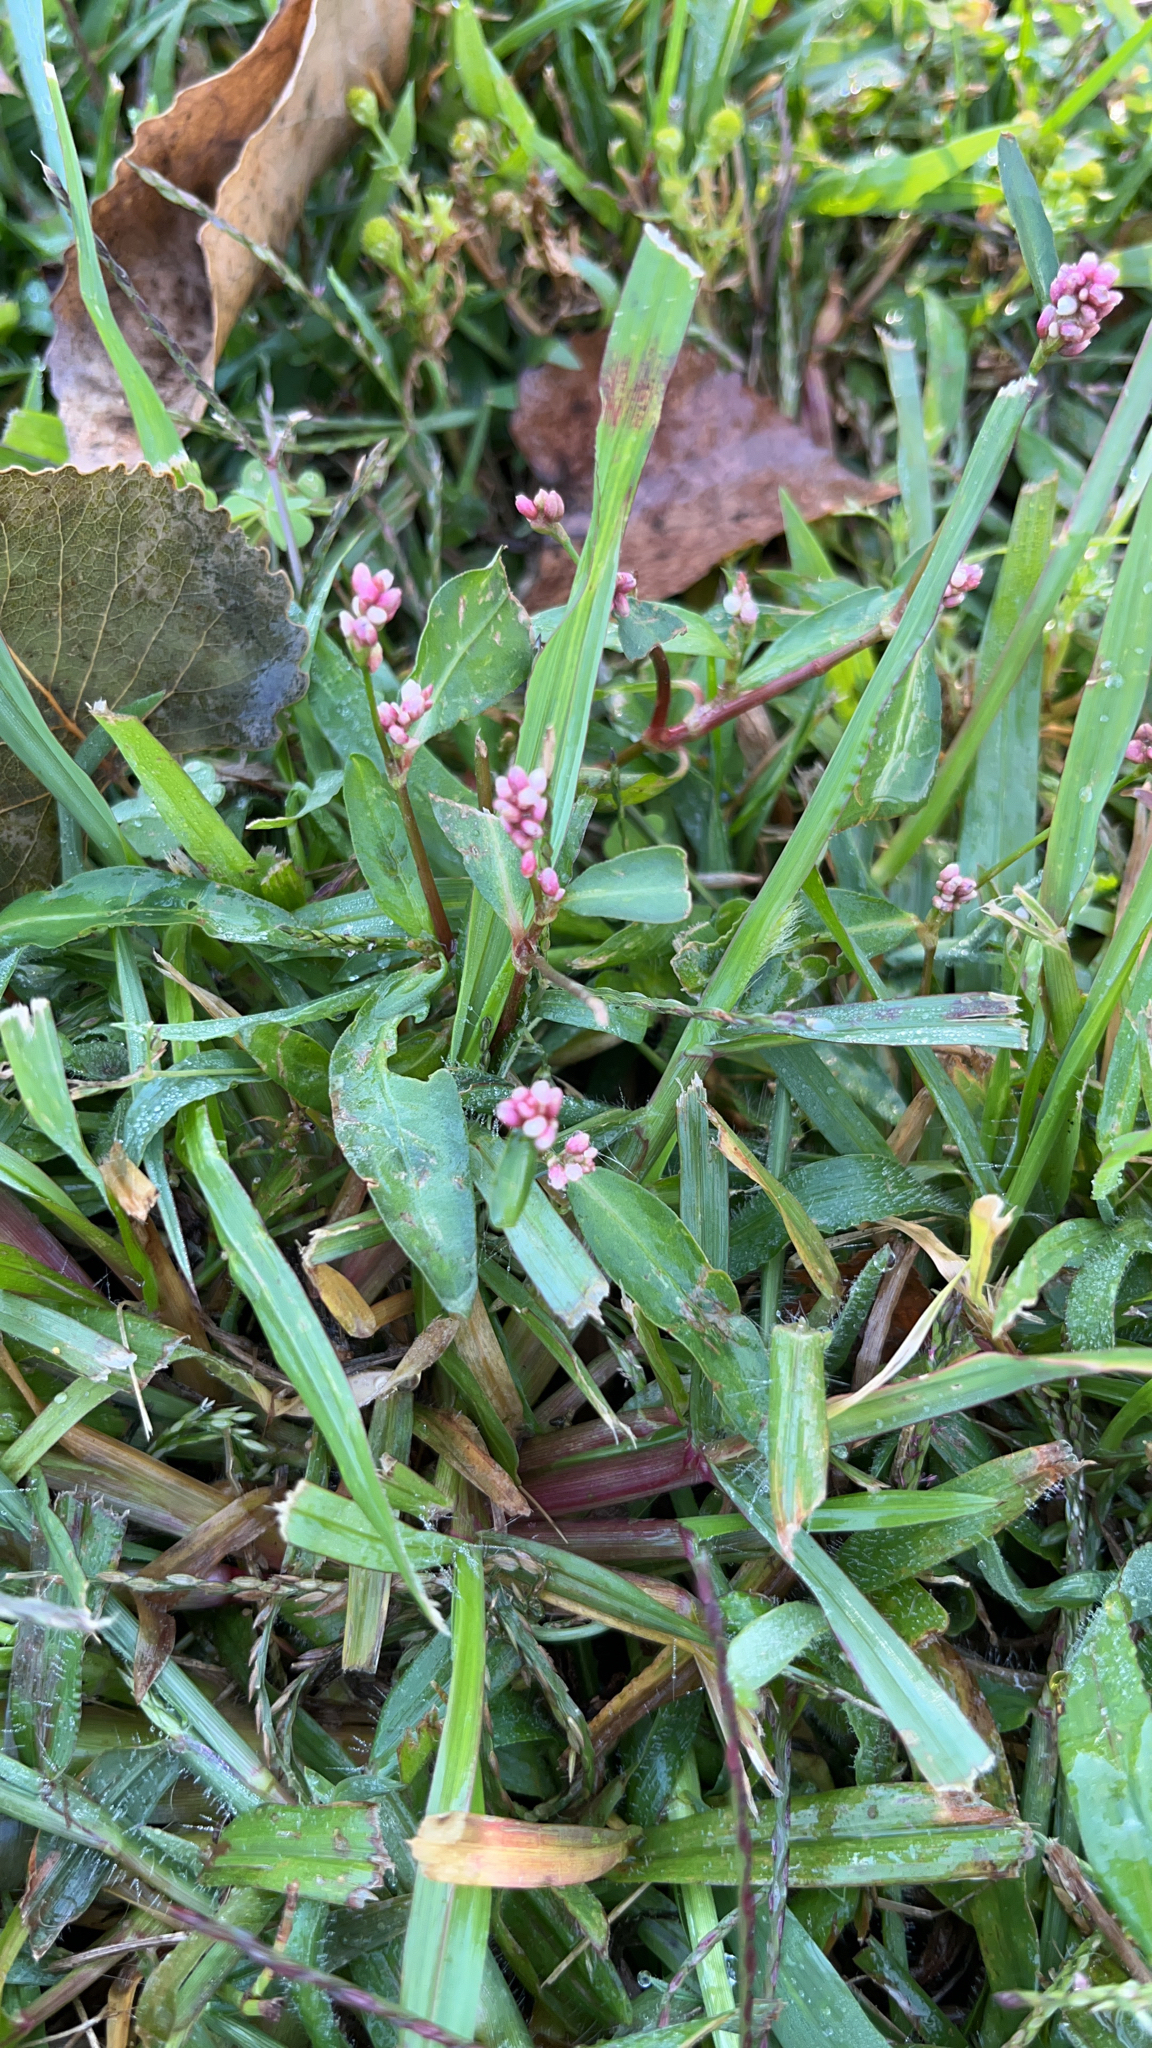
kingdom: Plantae
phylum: Tracheophyta
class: Magnoliopsida
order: Caryophyllales
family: Polygonaceae
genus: Persicaria
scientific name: Persicaria maculosa
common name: Redshank
